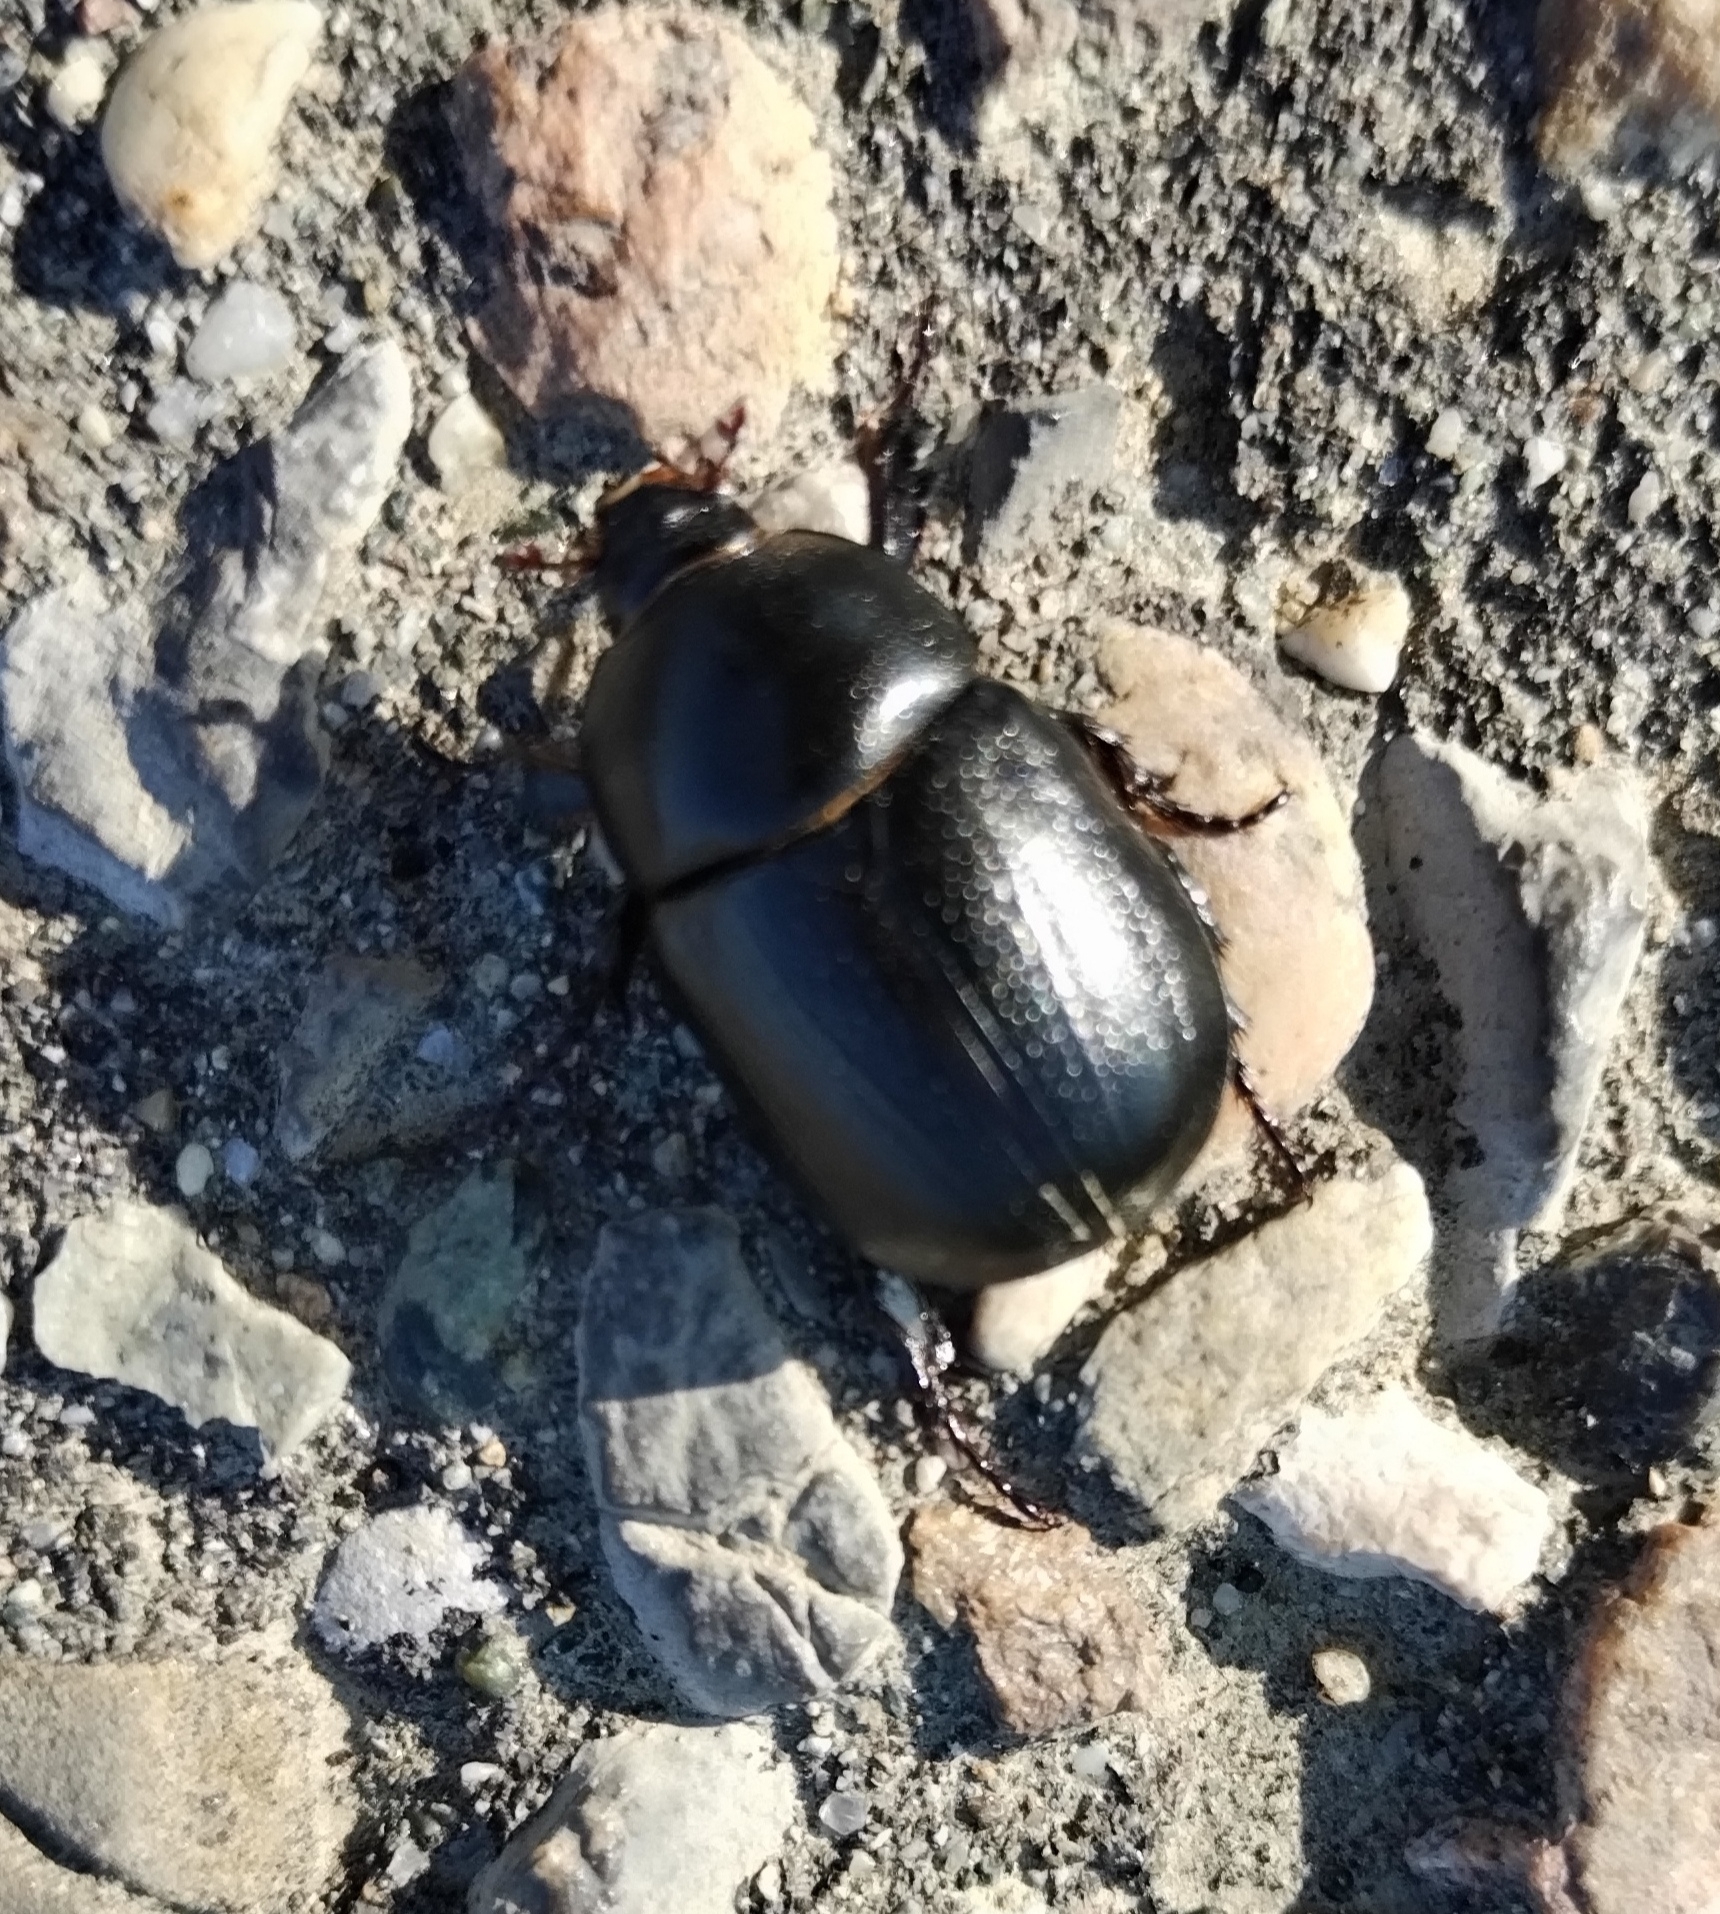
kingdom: Animalia
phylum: Arthropoda
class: Insecta
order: Coleoptera
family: Scarabaeidae
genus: Pentodon
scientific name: Pentodon bidens
